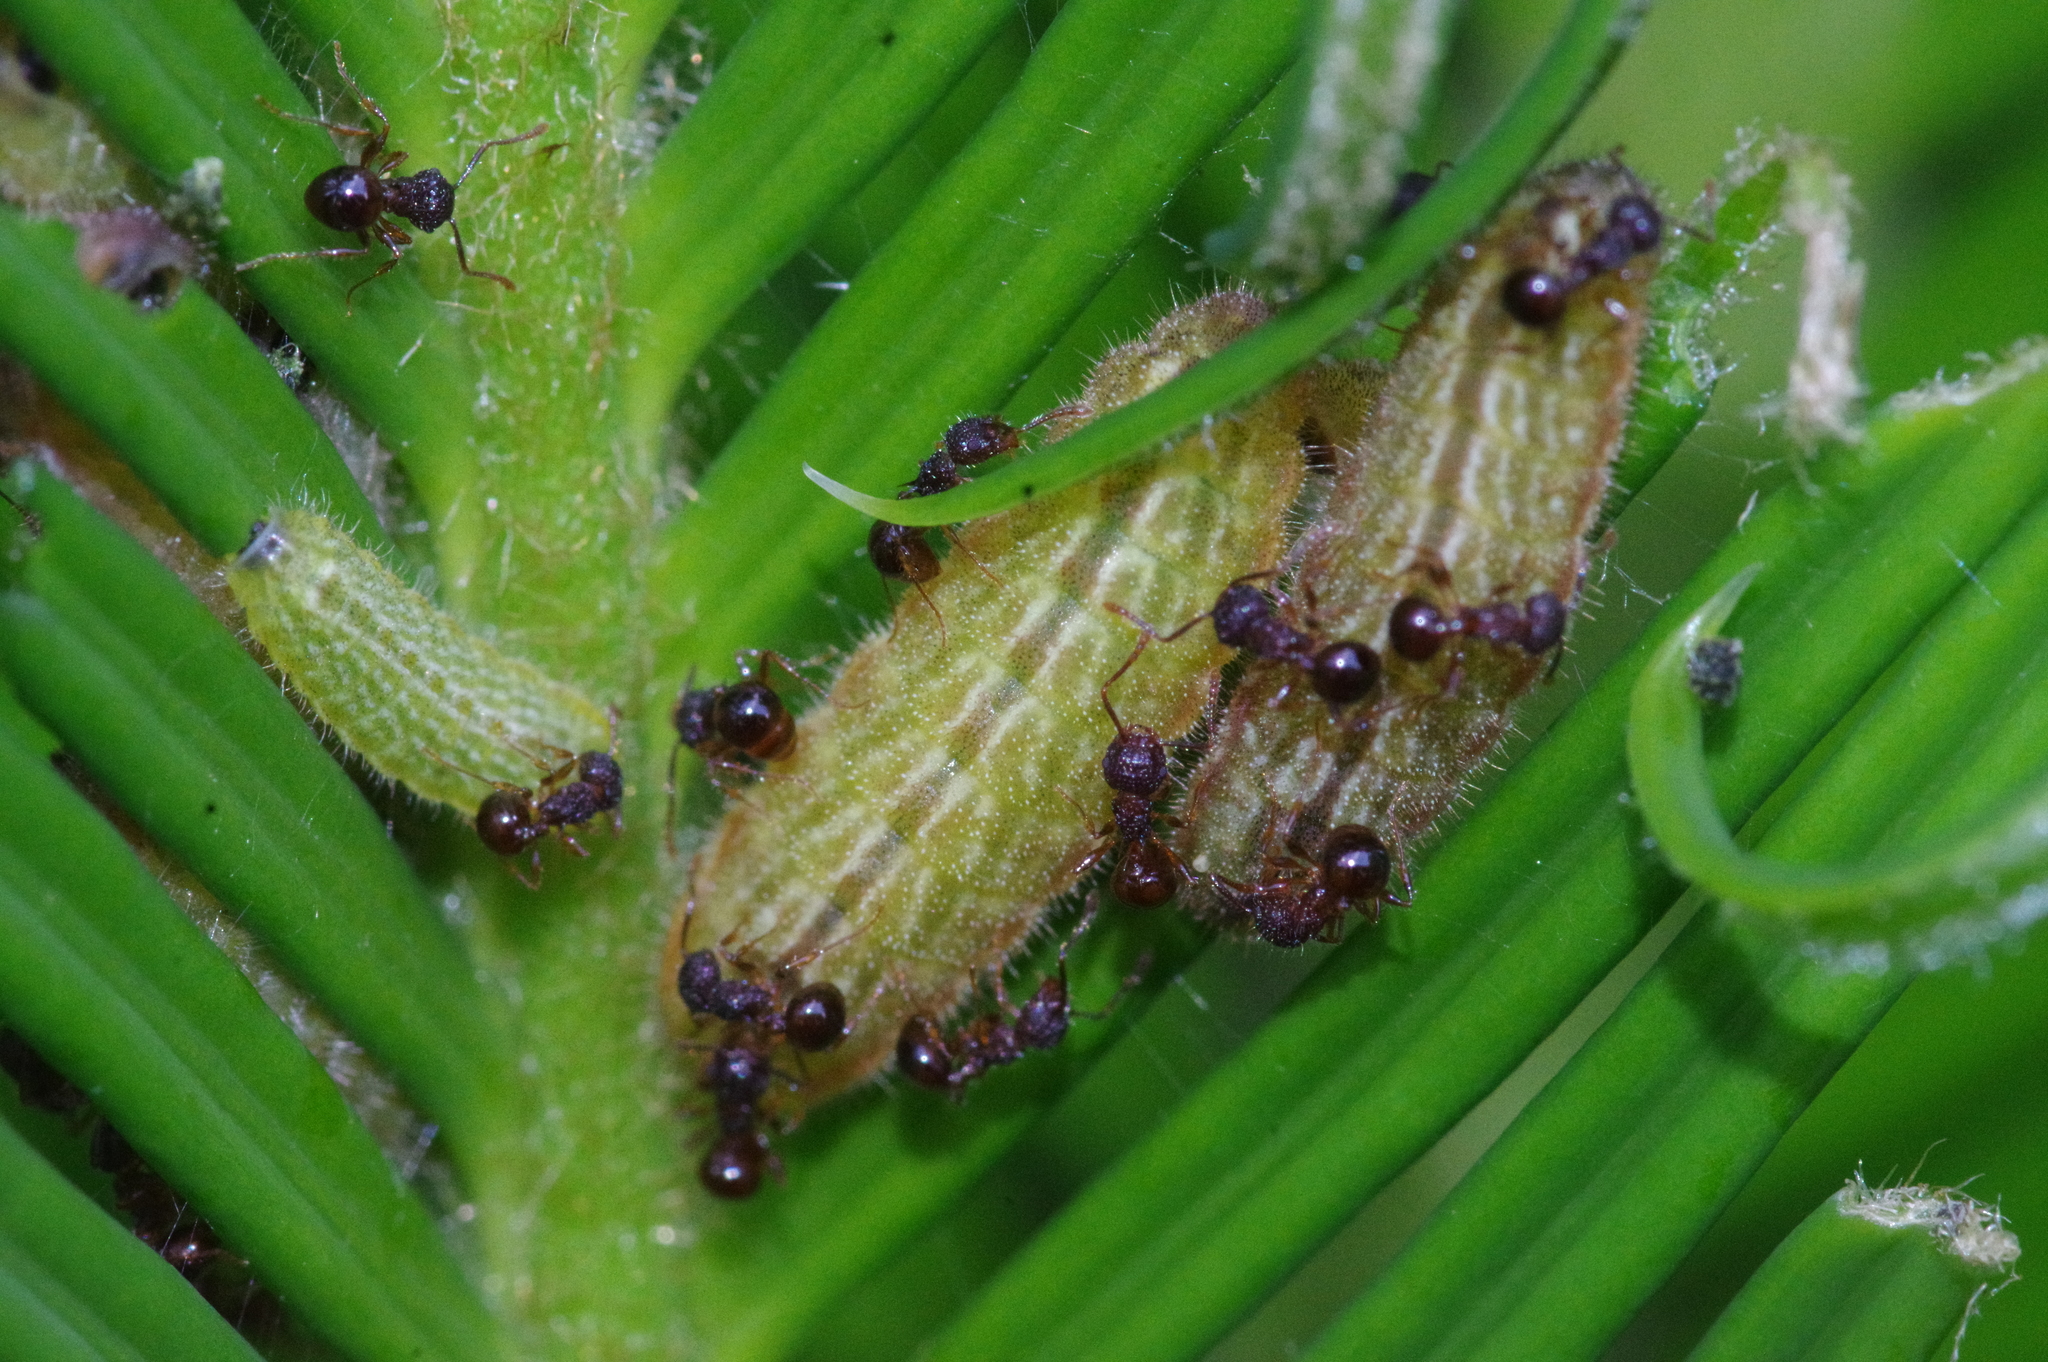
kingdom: Animalia
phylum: Arthropoda
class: Insecta
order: Hymenoptera
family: Formicidae
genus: Pristomyrmex
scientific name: Pristomyrmex punctatus
